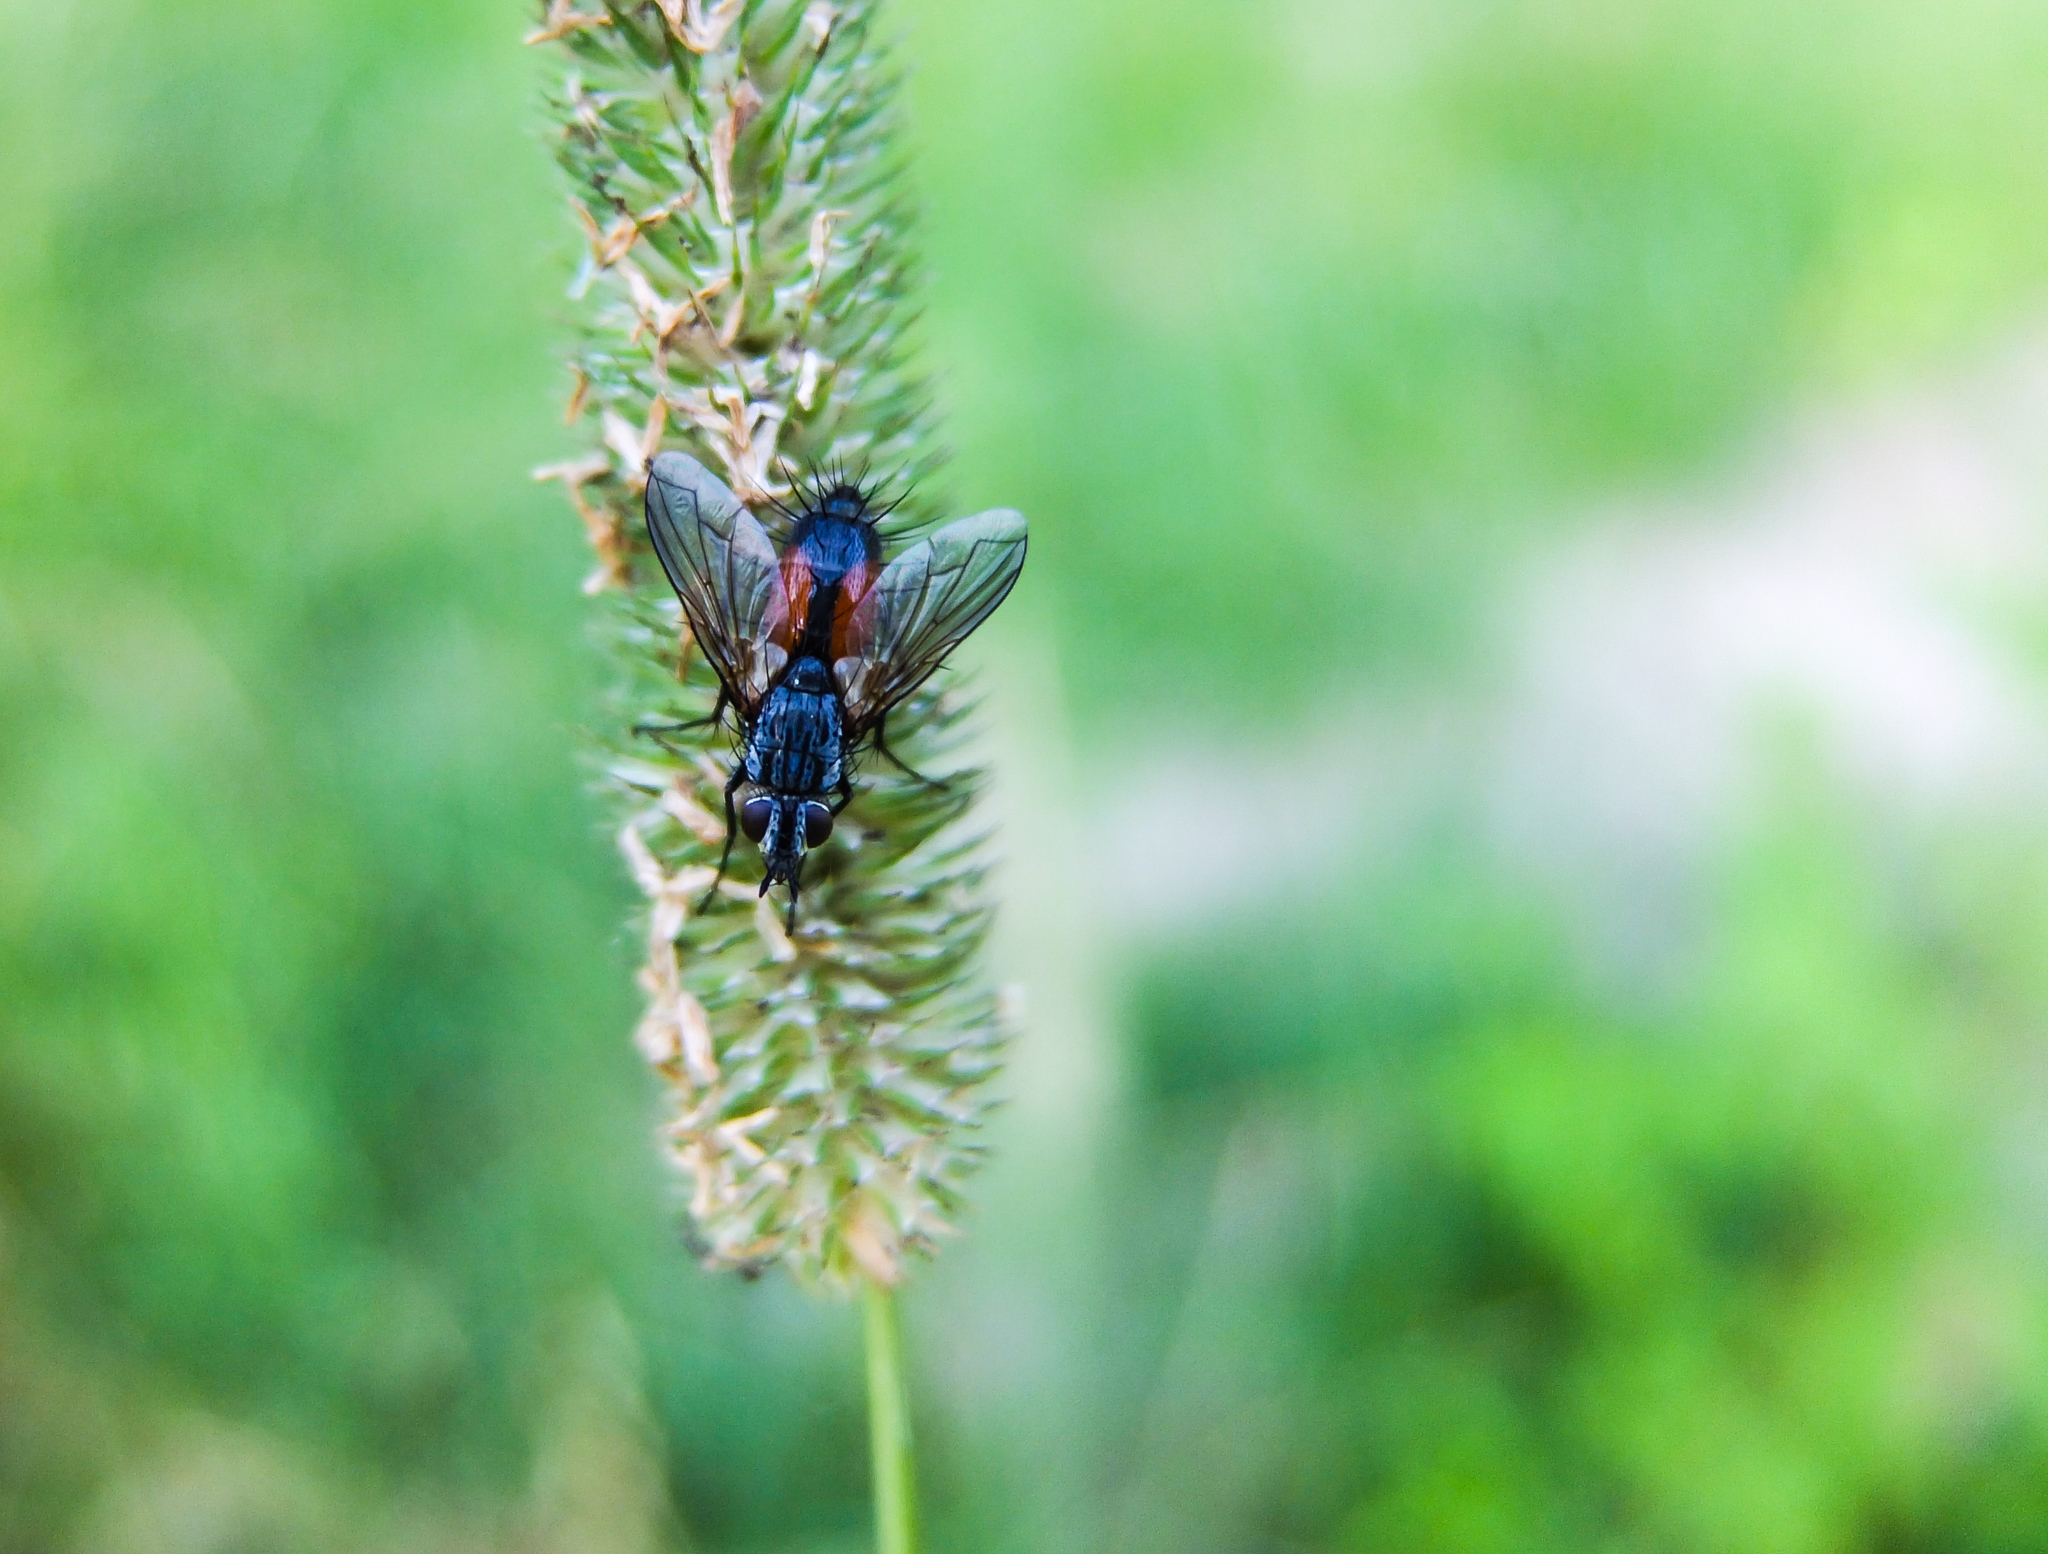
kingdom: Animalia
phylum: Arthropoda
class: Insecta
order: Diptera
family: Tachinidae
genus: Eriothrix
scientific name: Eriothrix rufomaculatus
